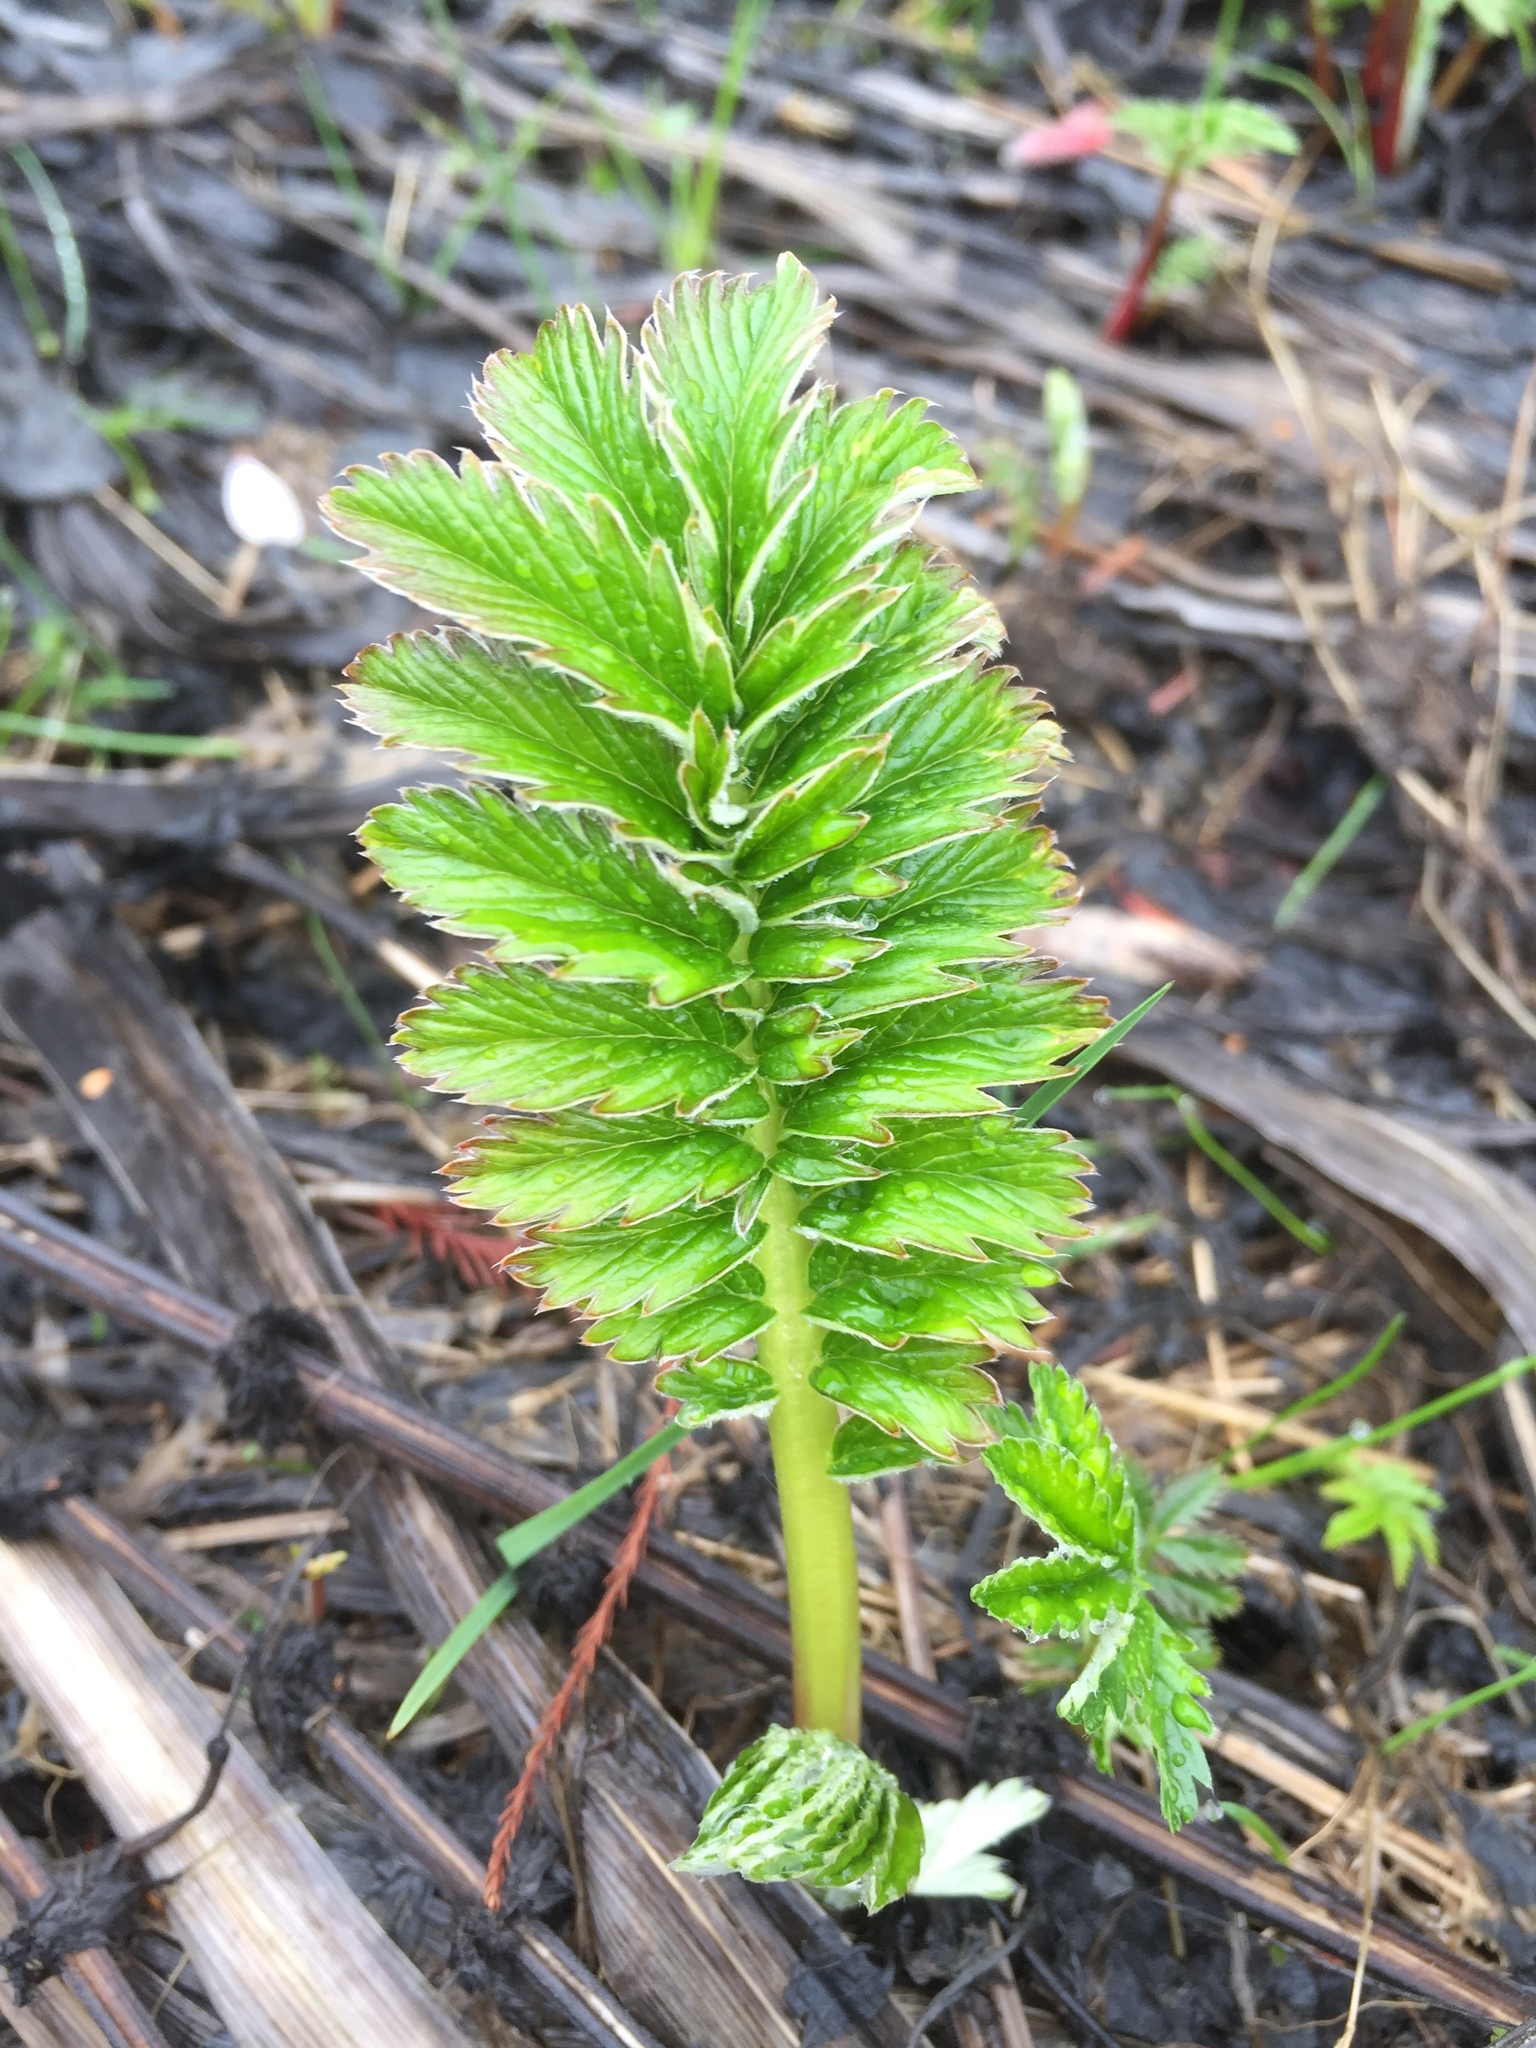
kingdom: Plantae
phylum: Tracheophyta
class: Magnoliopsida
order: Rosales
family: Rosaceae
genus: Argentina
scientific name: Argentina anserina
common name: Common silverweed
